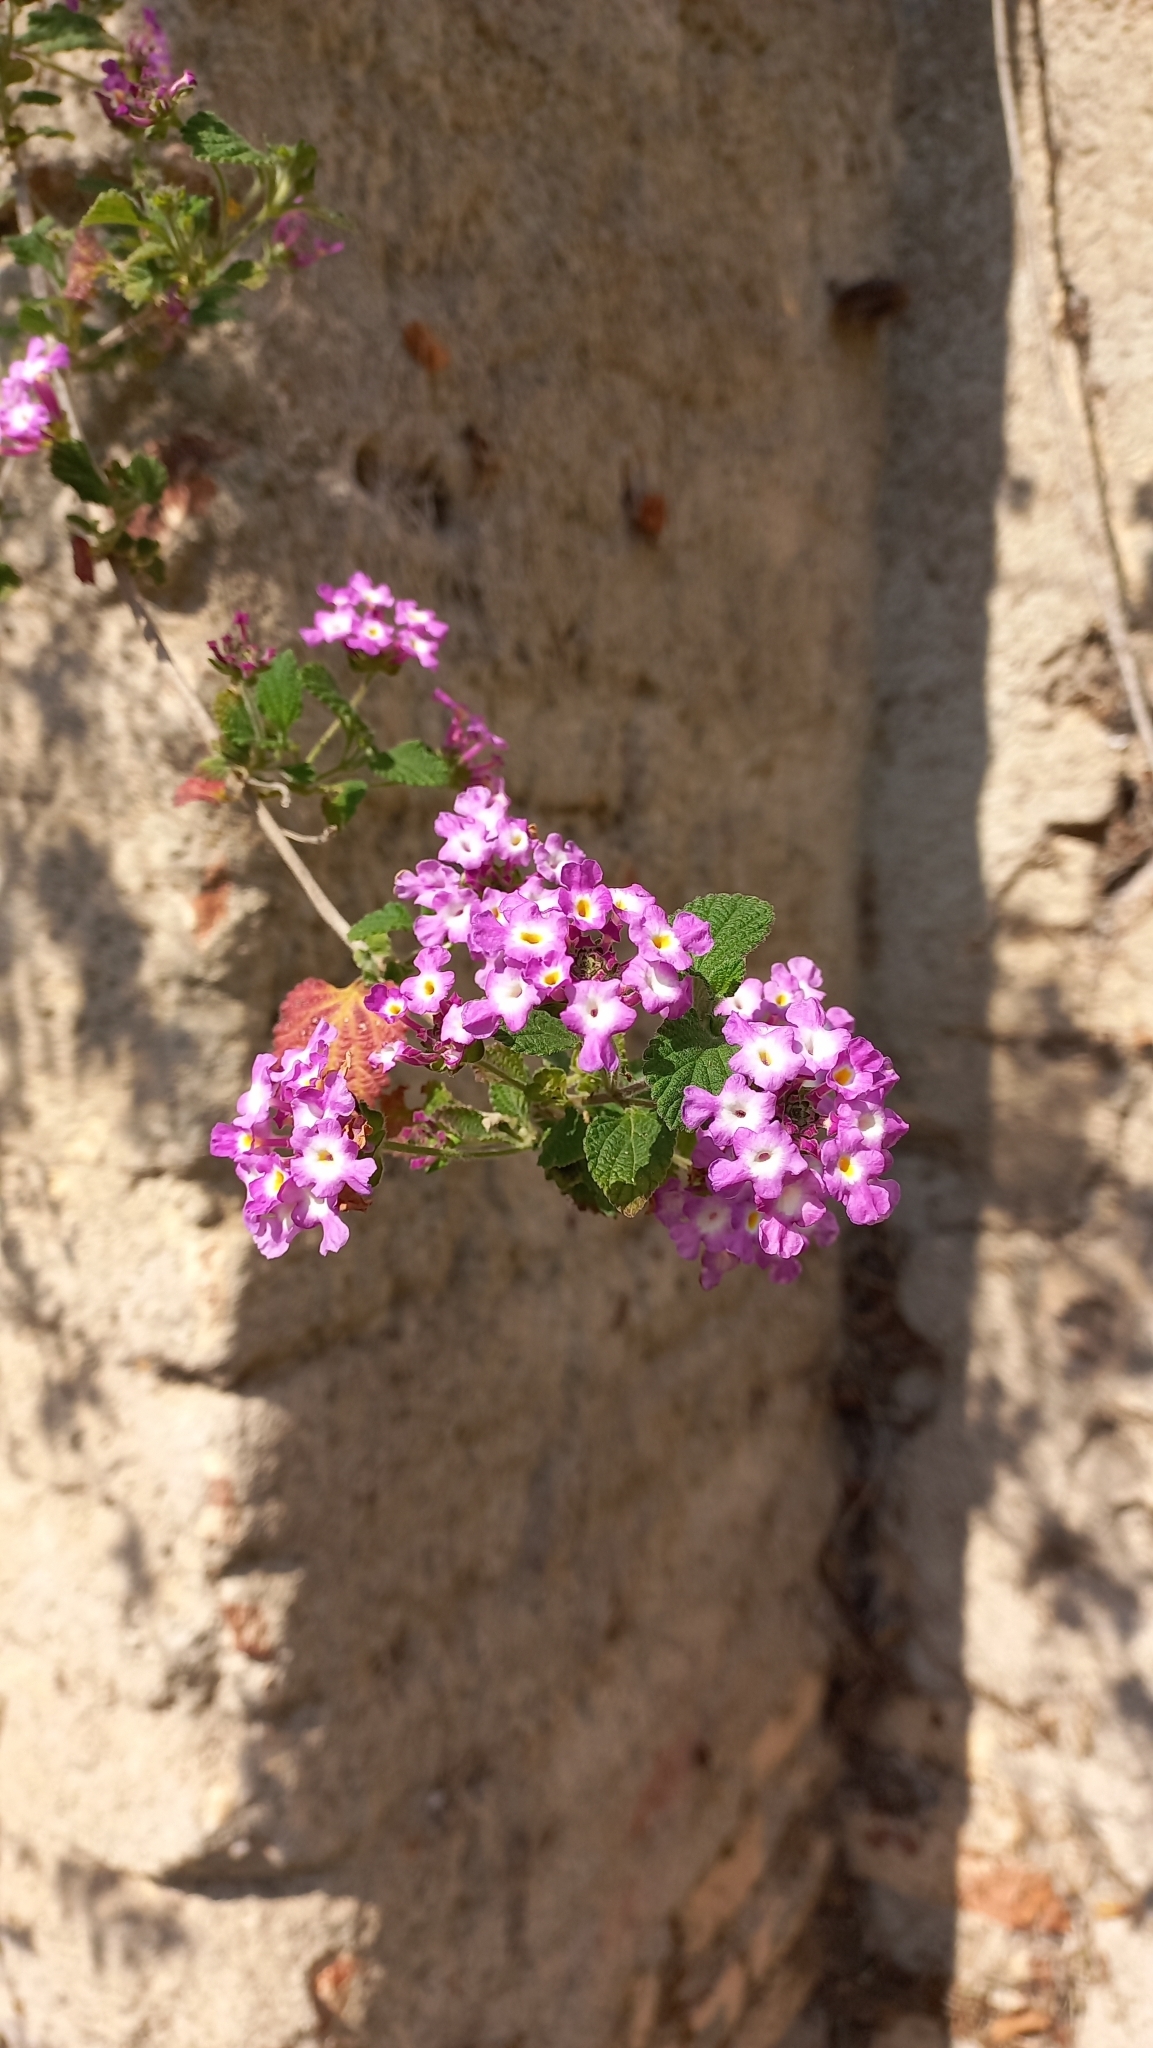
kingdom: Plantae
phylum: Tracheophyta
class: Magnoliopsida
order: Lamiales
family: Verbenaceae
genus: Lantana
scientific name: Lantana megapotamica
